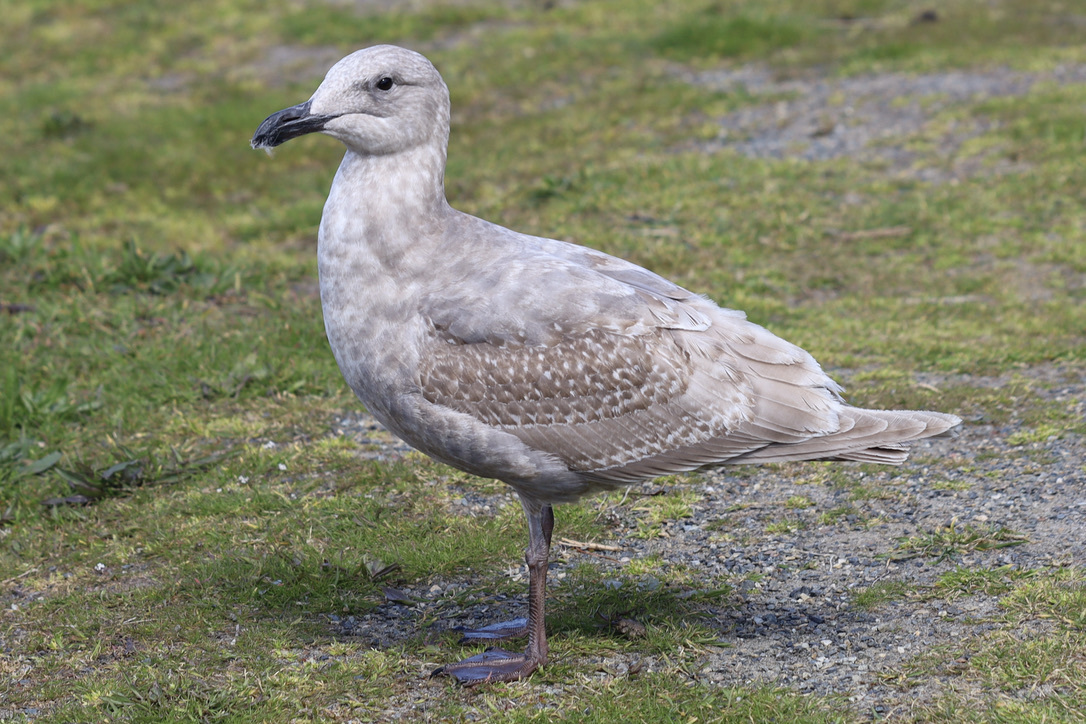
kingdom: Animalia
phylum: Chordata
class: Aves
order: Charadriiformes
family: Laridae
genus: Larus
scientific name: Larus
